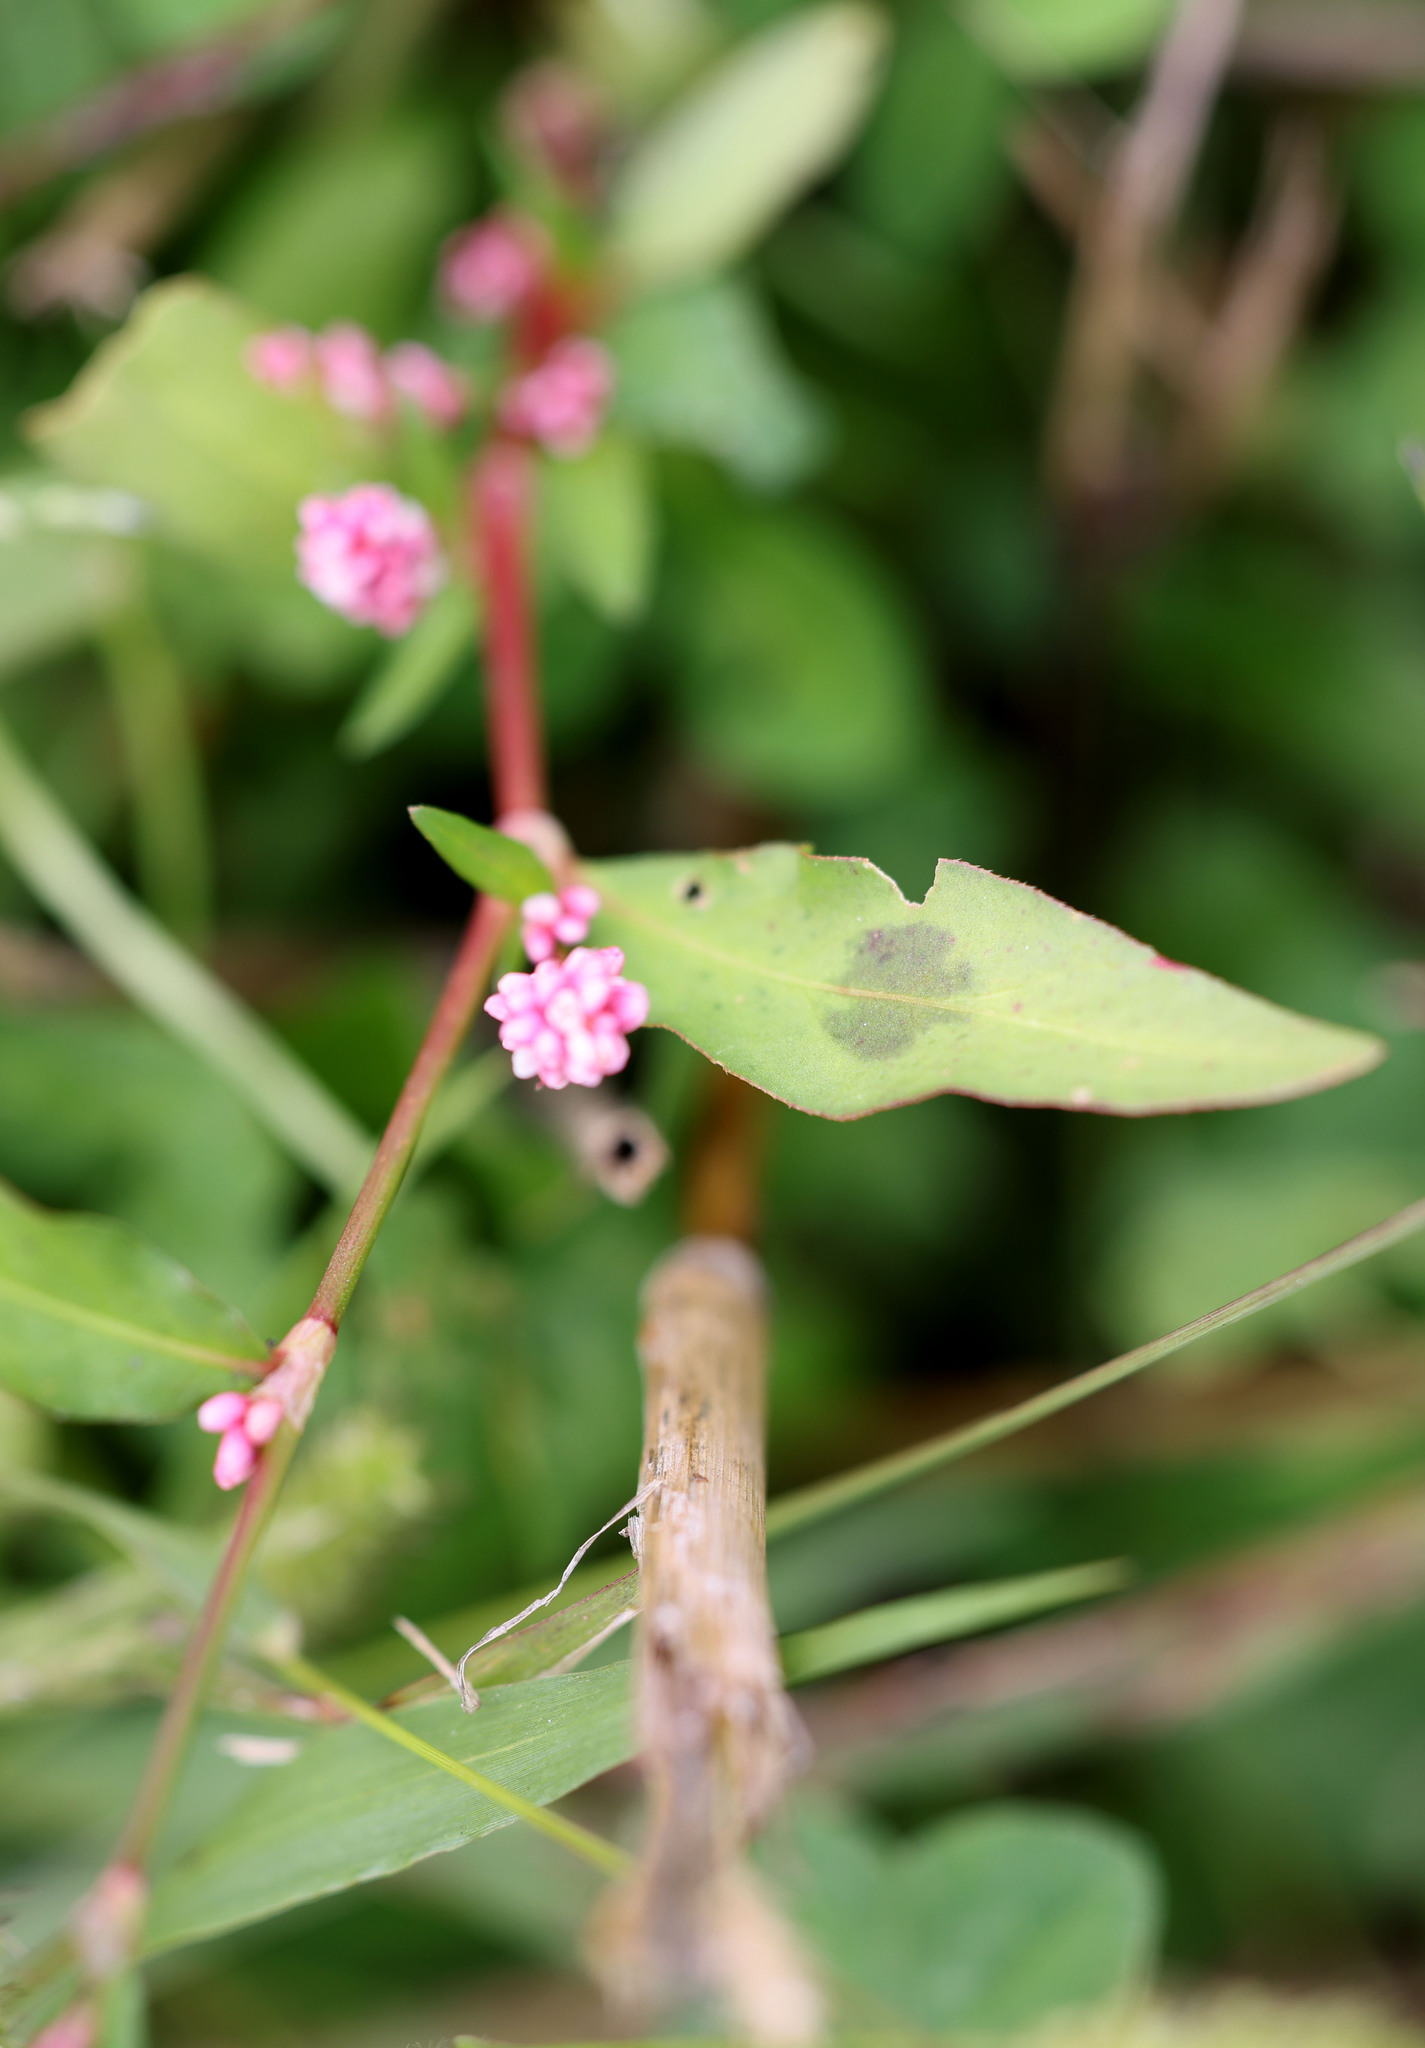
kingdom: Plantae
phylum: Tracheophyta
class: Magnoliopsida
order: Caryophyllales
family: Polygonaceae
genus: Persicaria
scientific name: Persicaria maculosa
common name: Redshank
